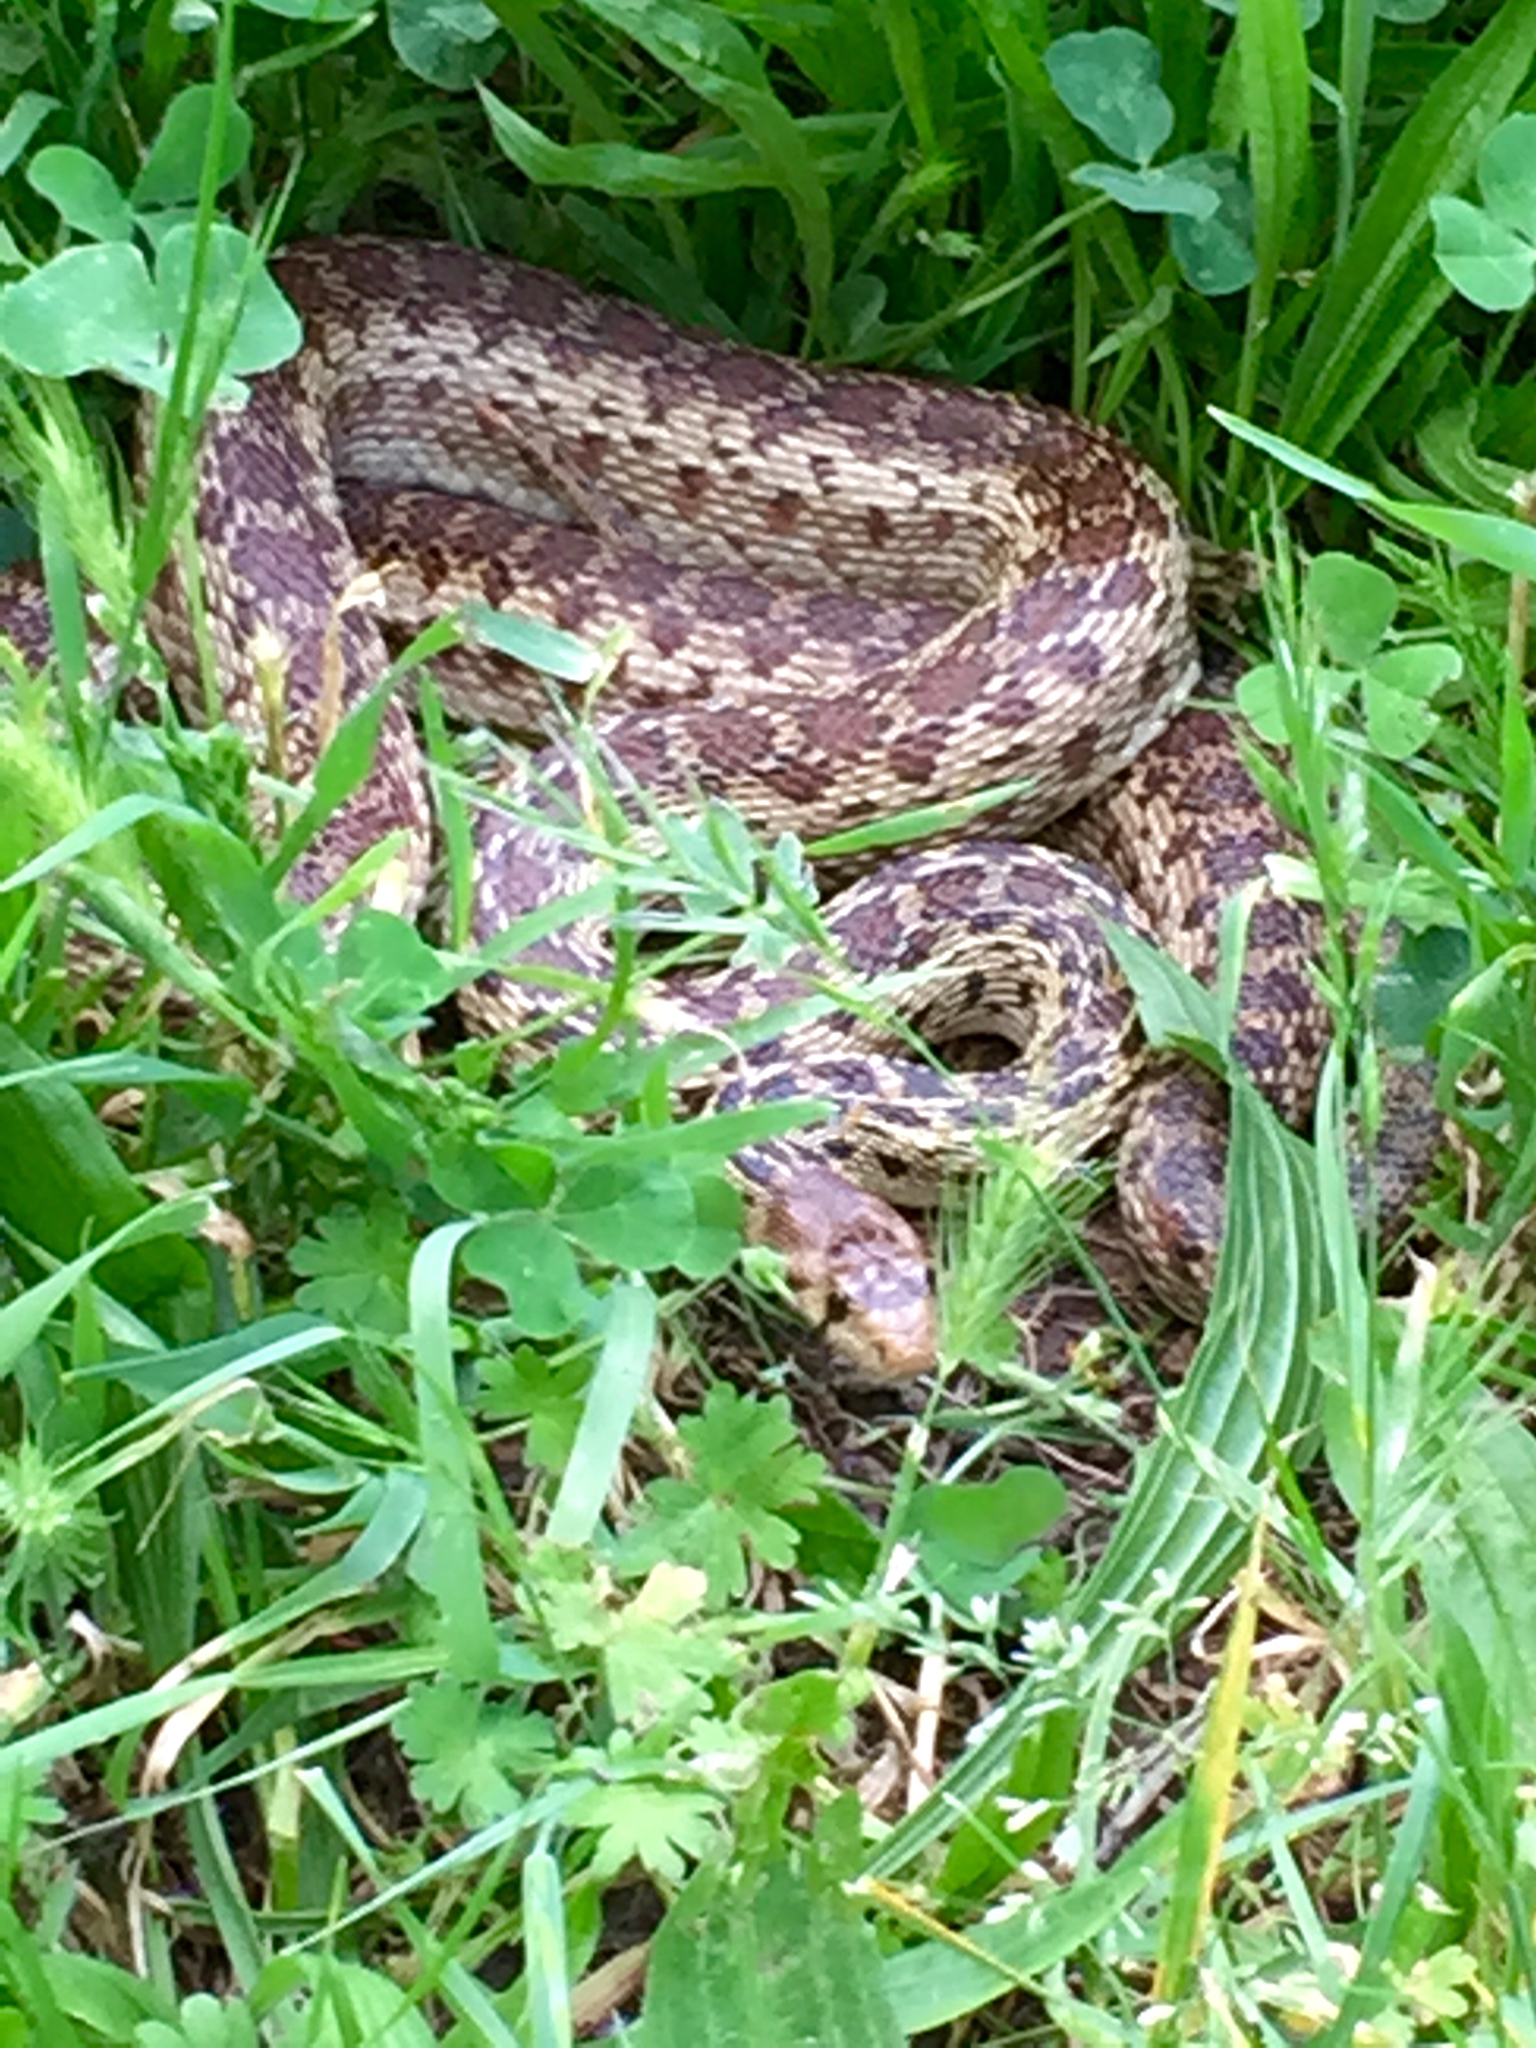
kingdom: Animalia
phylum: Chordata
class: Squamata
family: Colubridae
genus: Pituophis
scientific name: Pituophis catenifer
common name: Gopher snake
